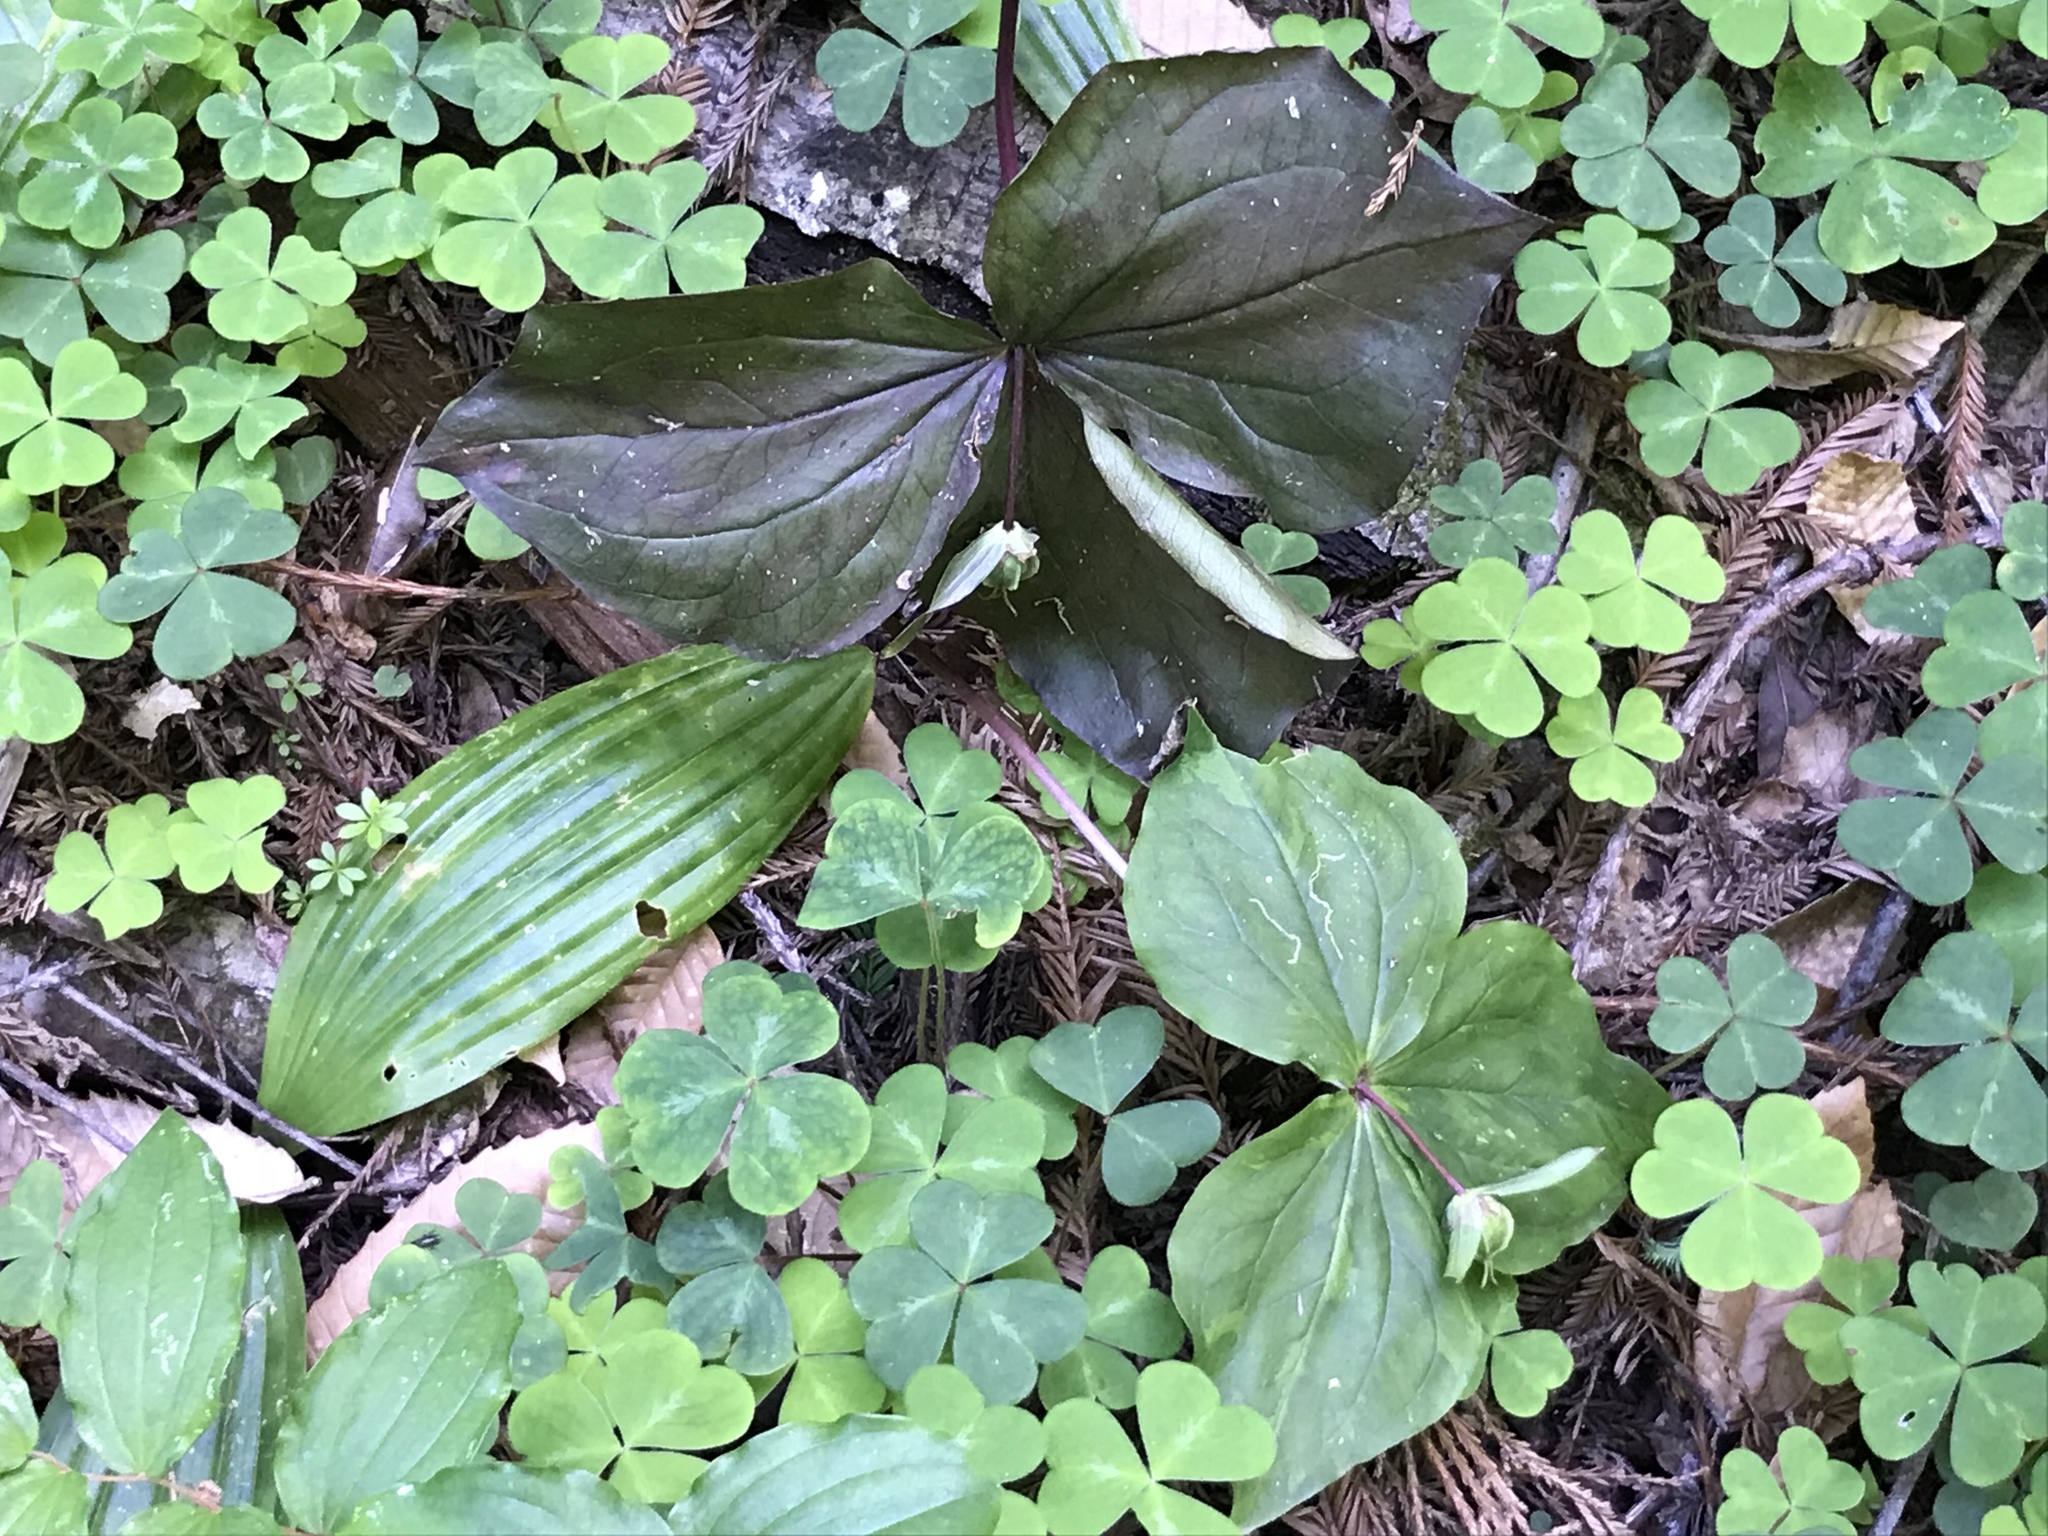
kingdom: Plantae
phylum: Tracheophyta
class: Liliopsida
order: Liliales
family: Melanthiaceae
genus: Trillium
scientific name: Trillium ovatum
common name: Pacific trillium
